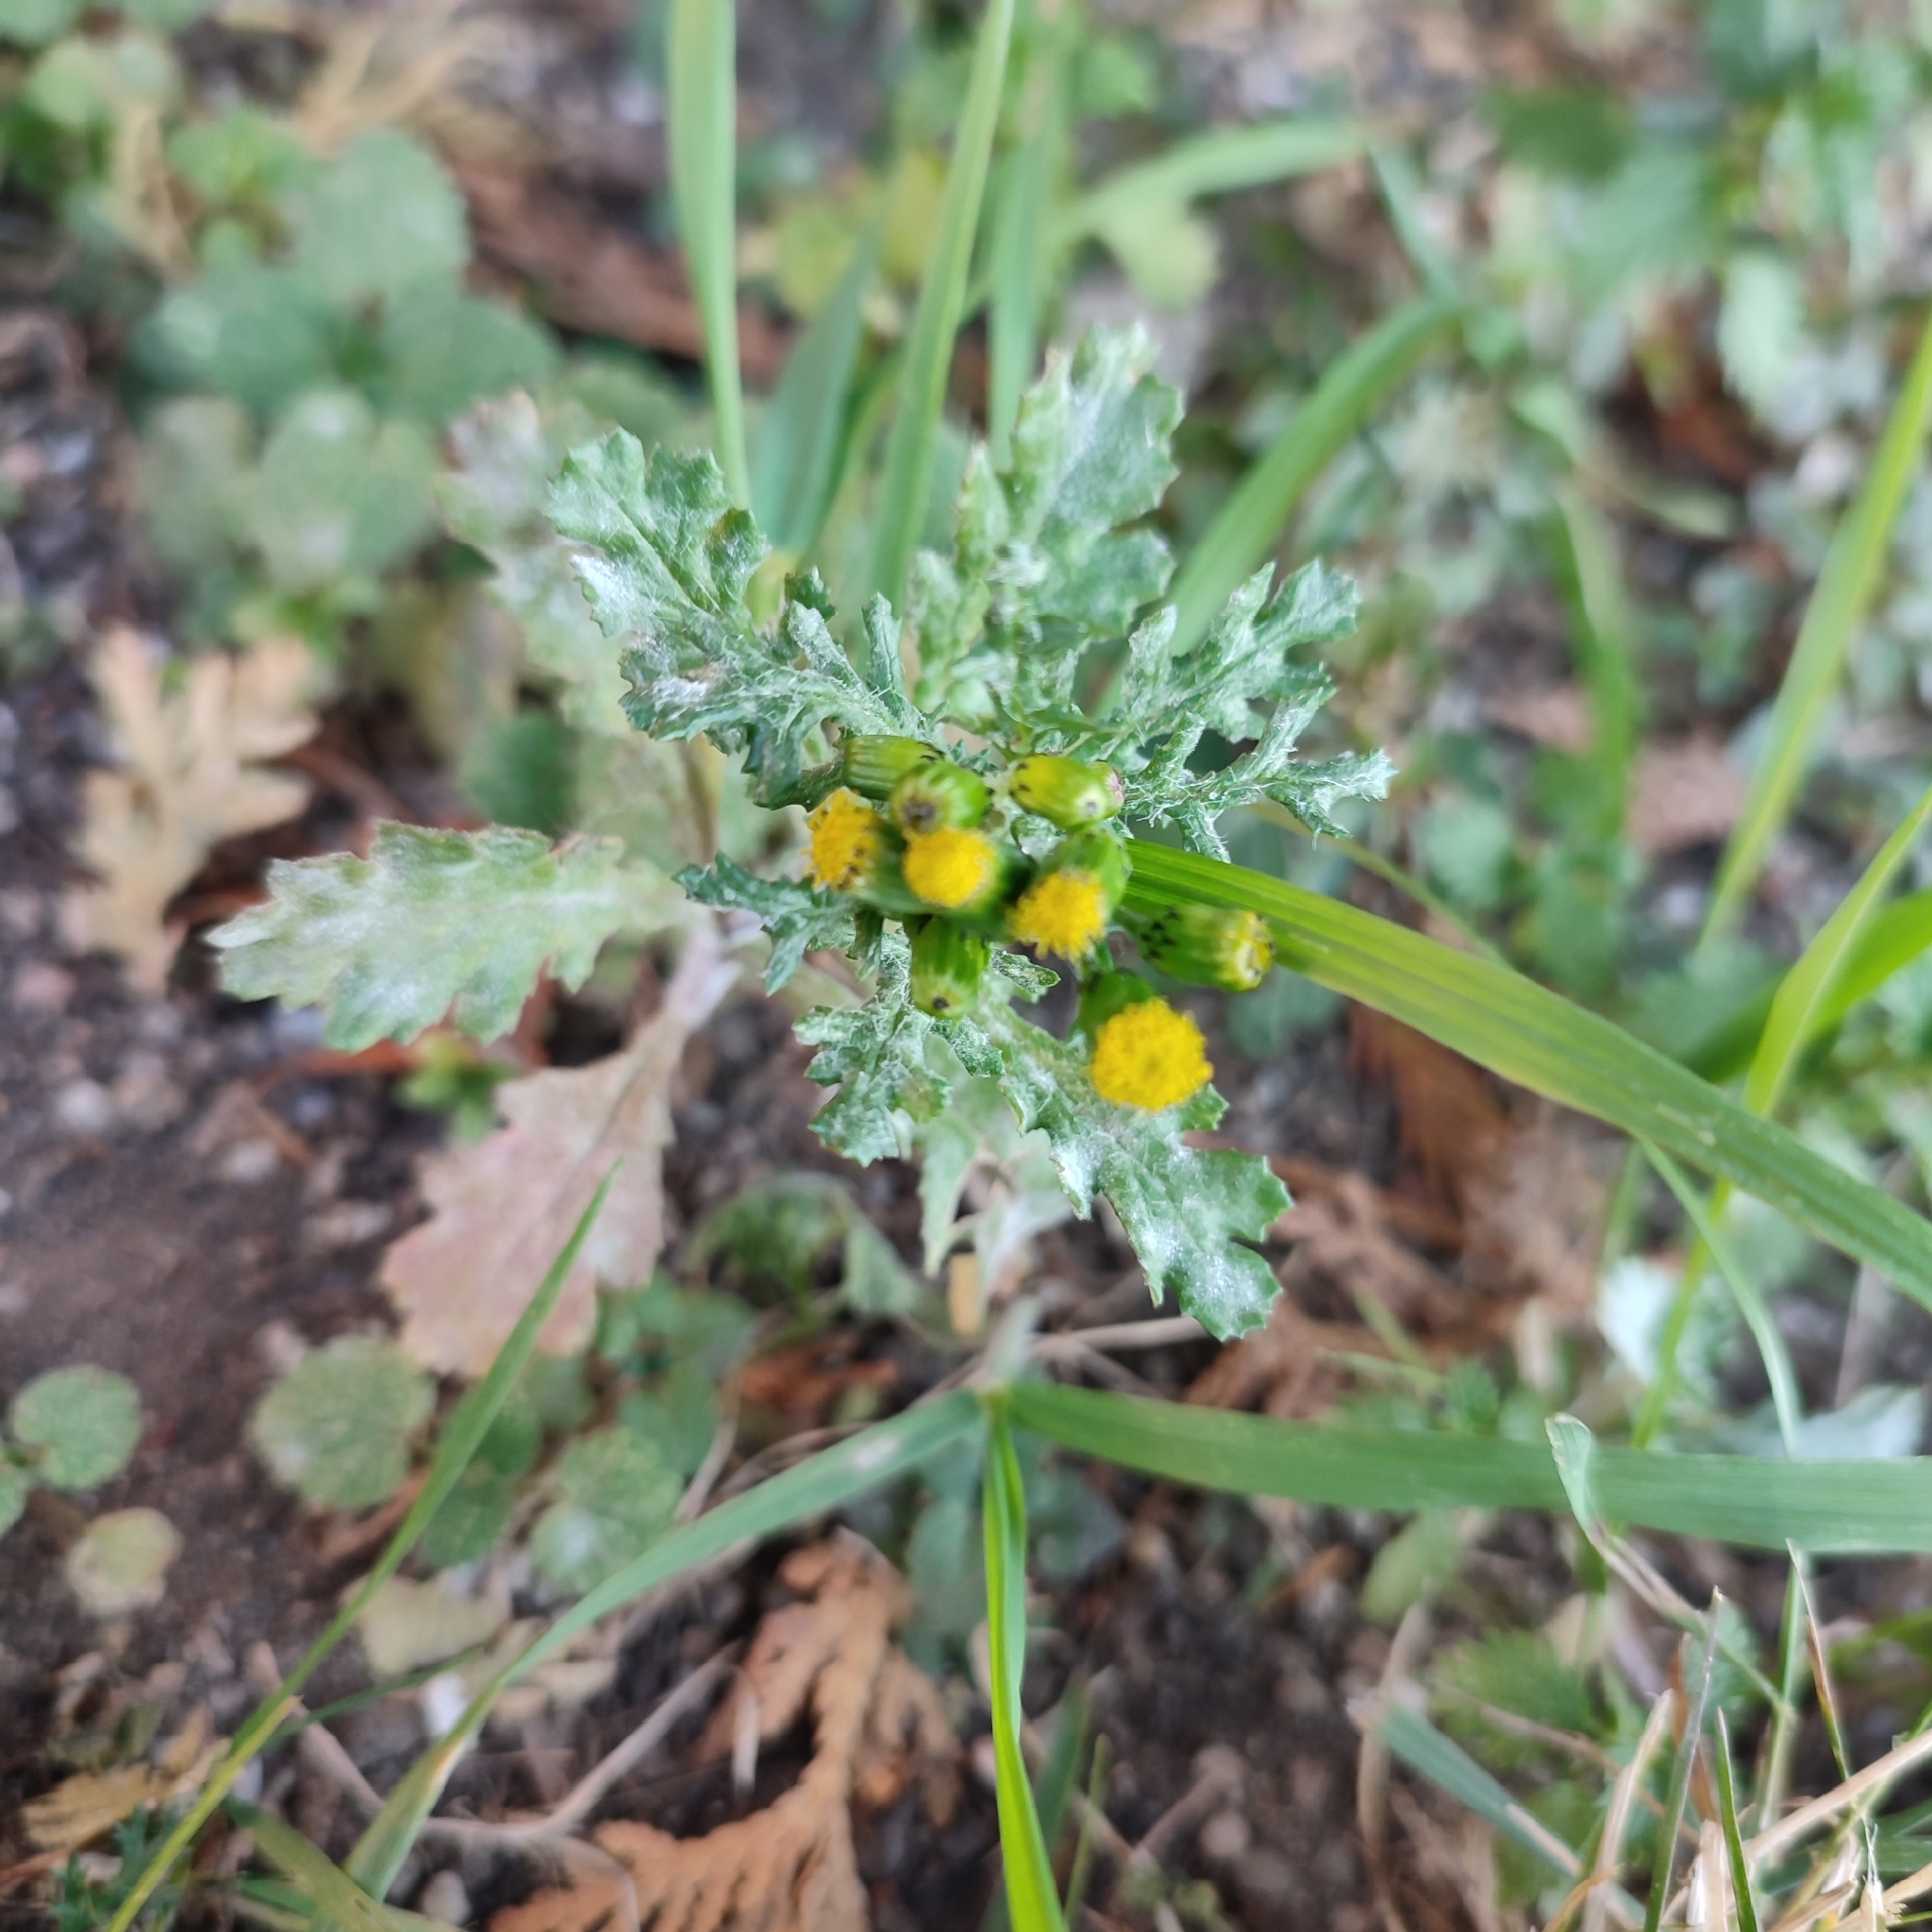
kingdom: Plantae
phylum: Tracheophyta
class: Magnoliopsida
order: Asterales
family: Asteraceae
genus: Senecio
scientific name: Senecio vulgaris
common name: Old-man-in-the-spring
